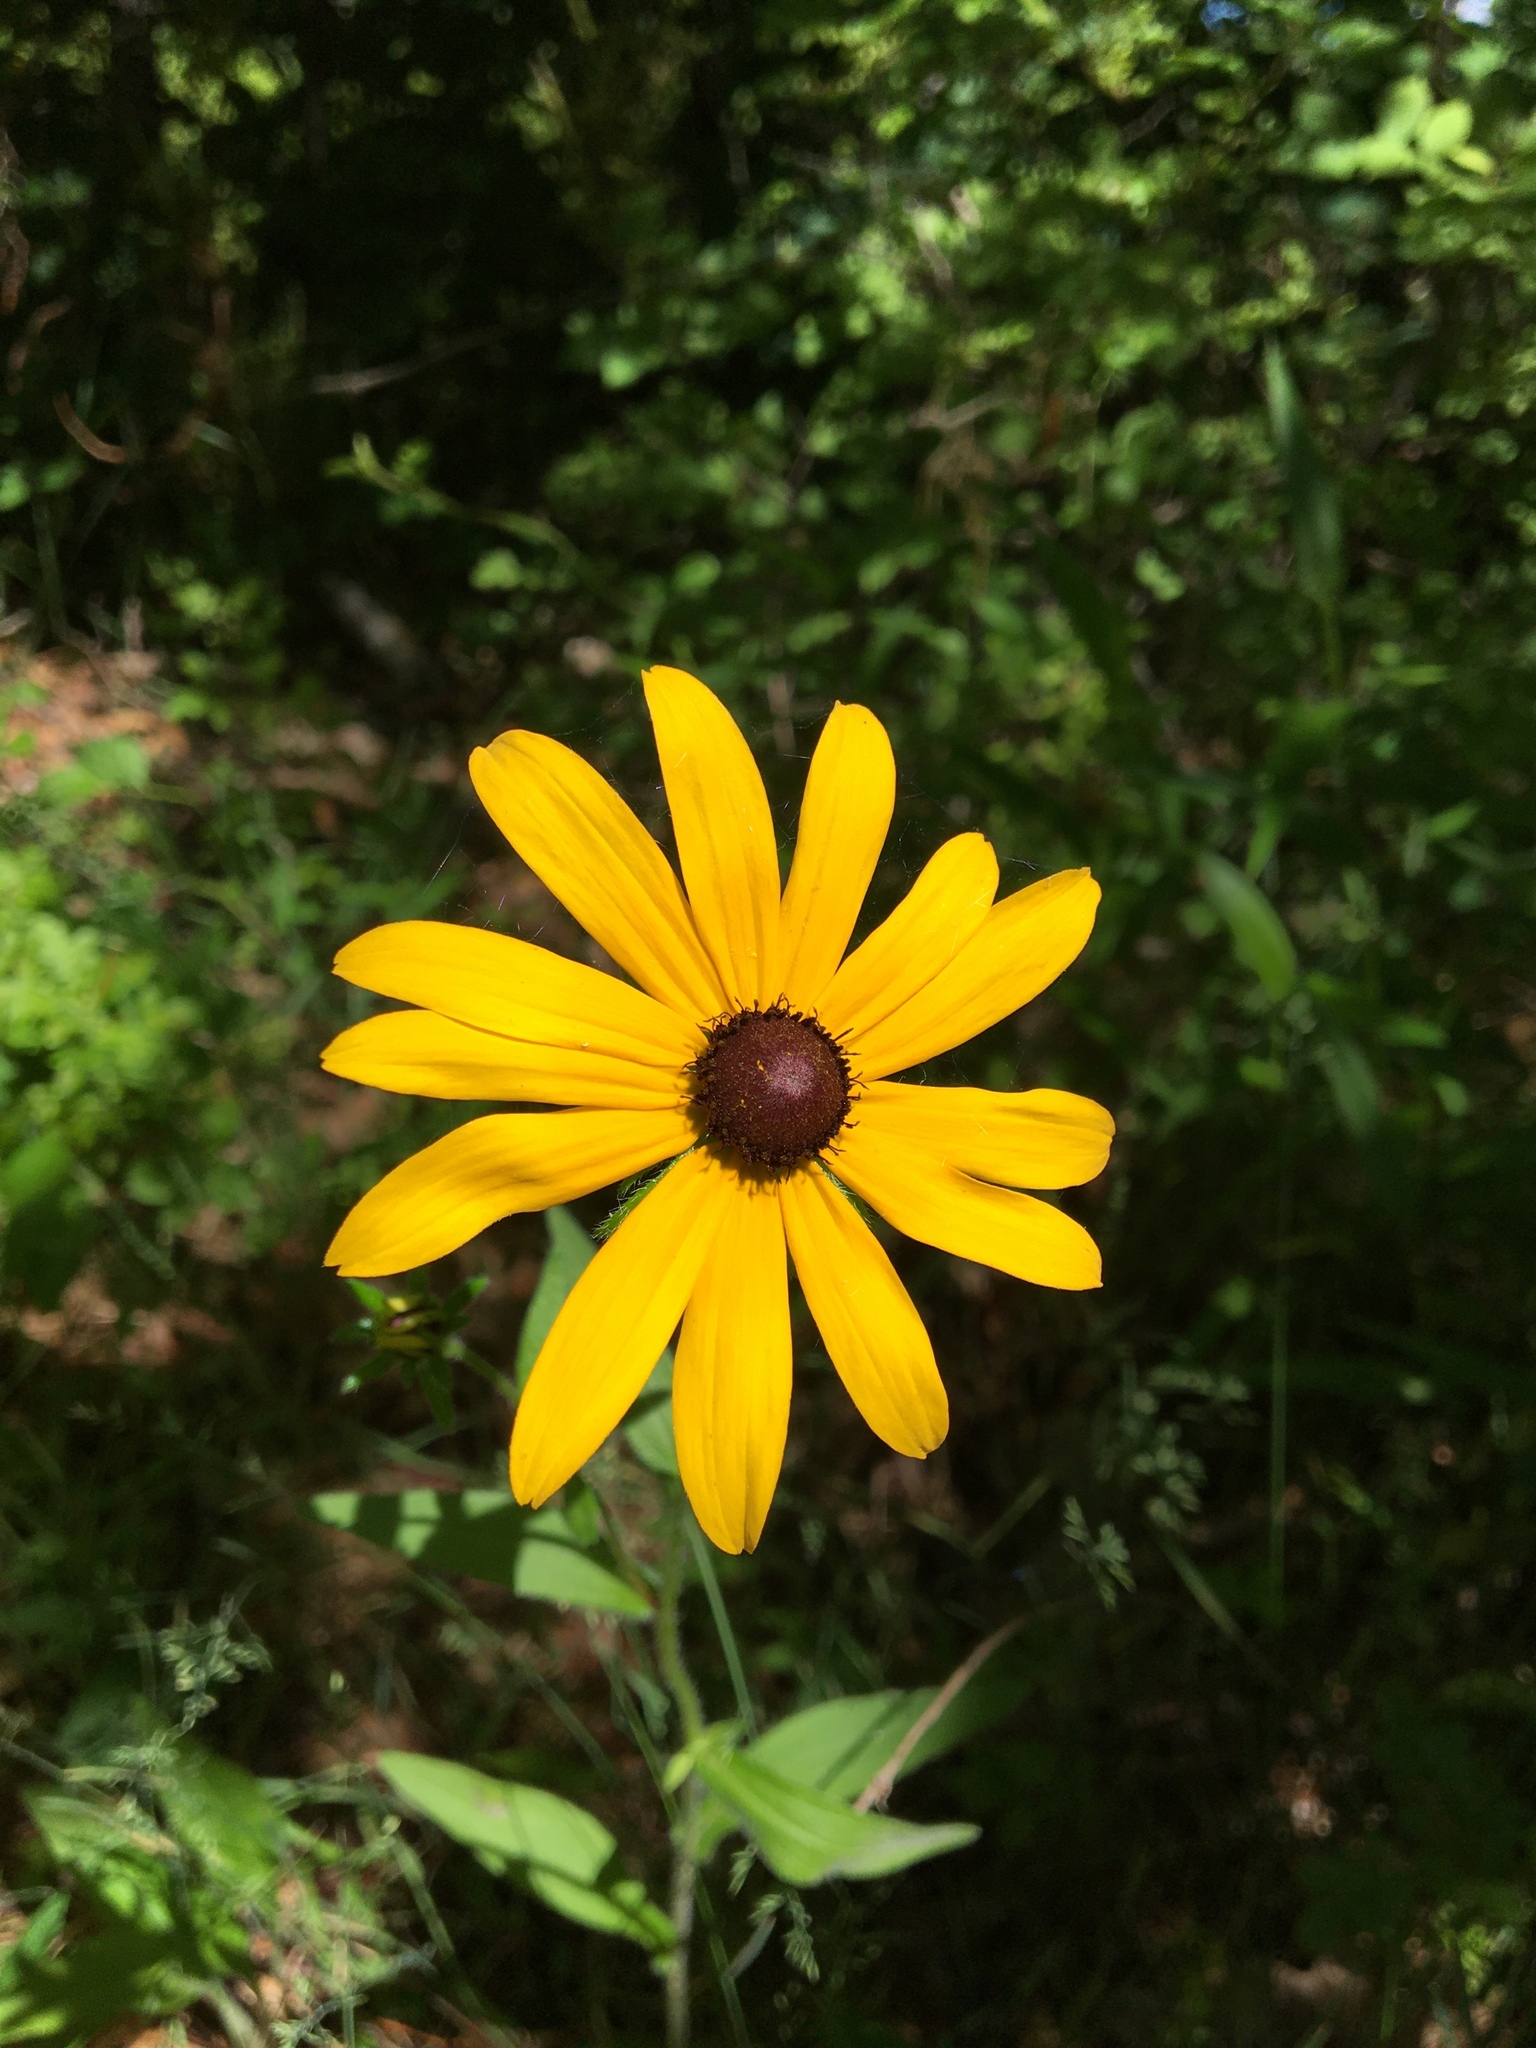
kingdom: Plantae
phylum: Tracheophyta
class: Magnoliopsida
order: Asterales
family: Asteraceae
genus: Rudbeckia
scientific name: Rudbeckia hirta
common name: Black-eyed-susan
